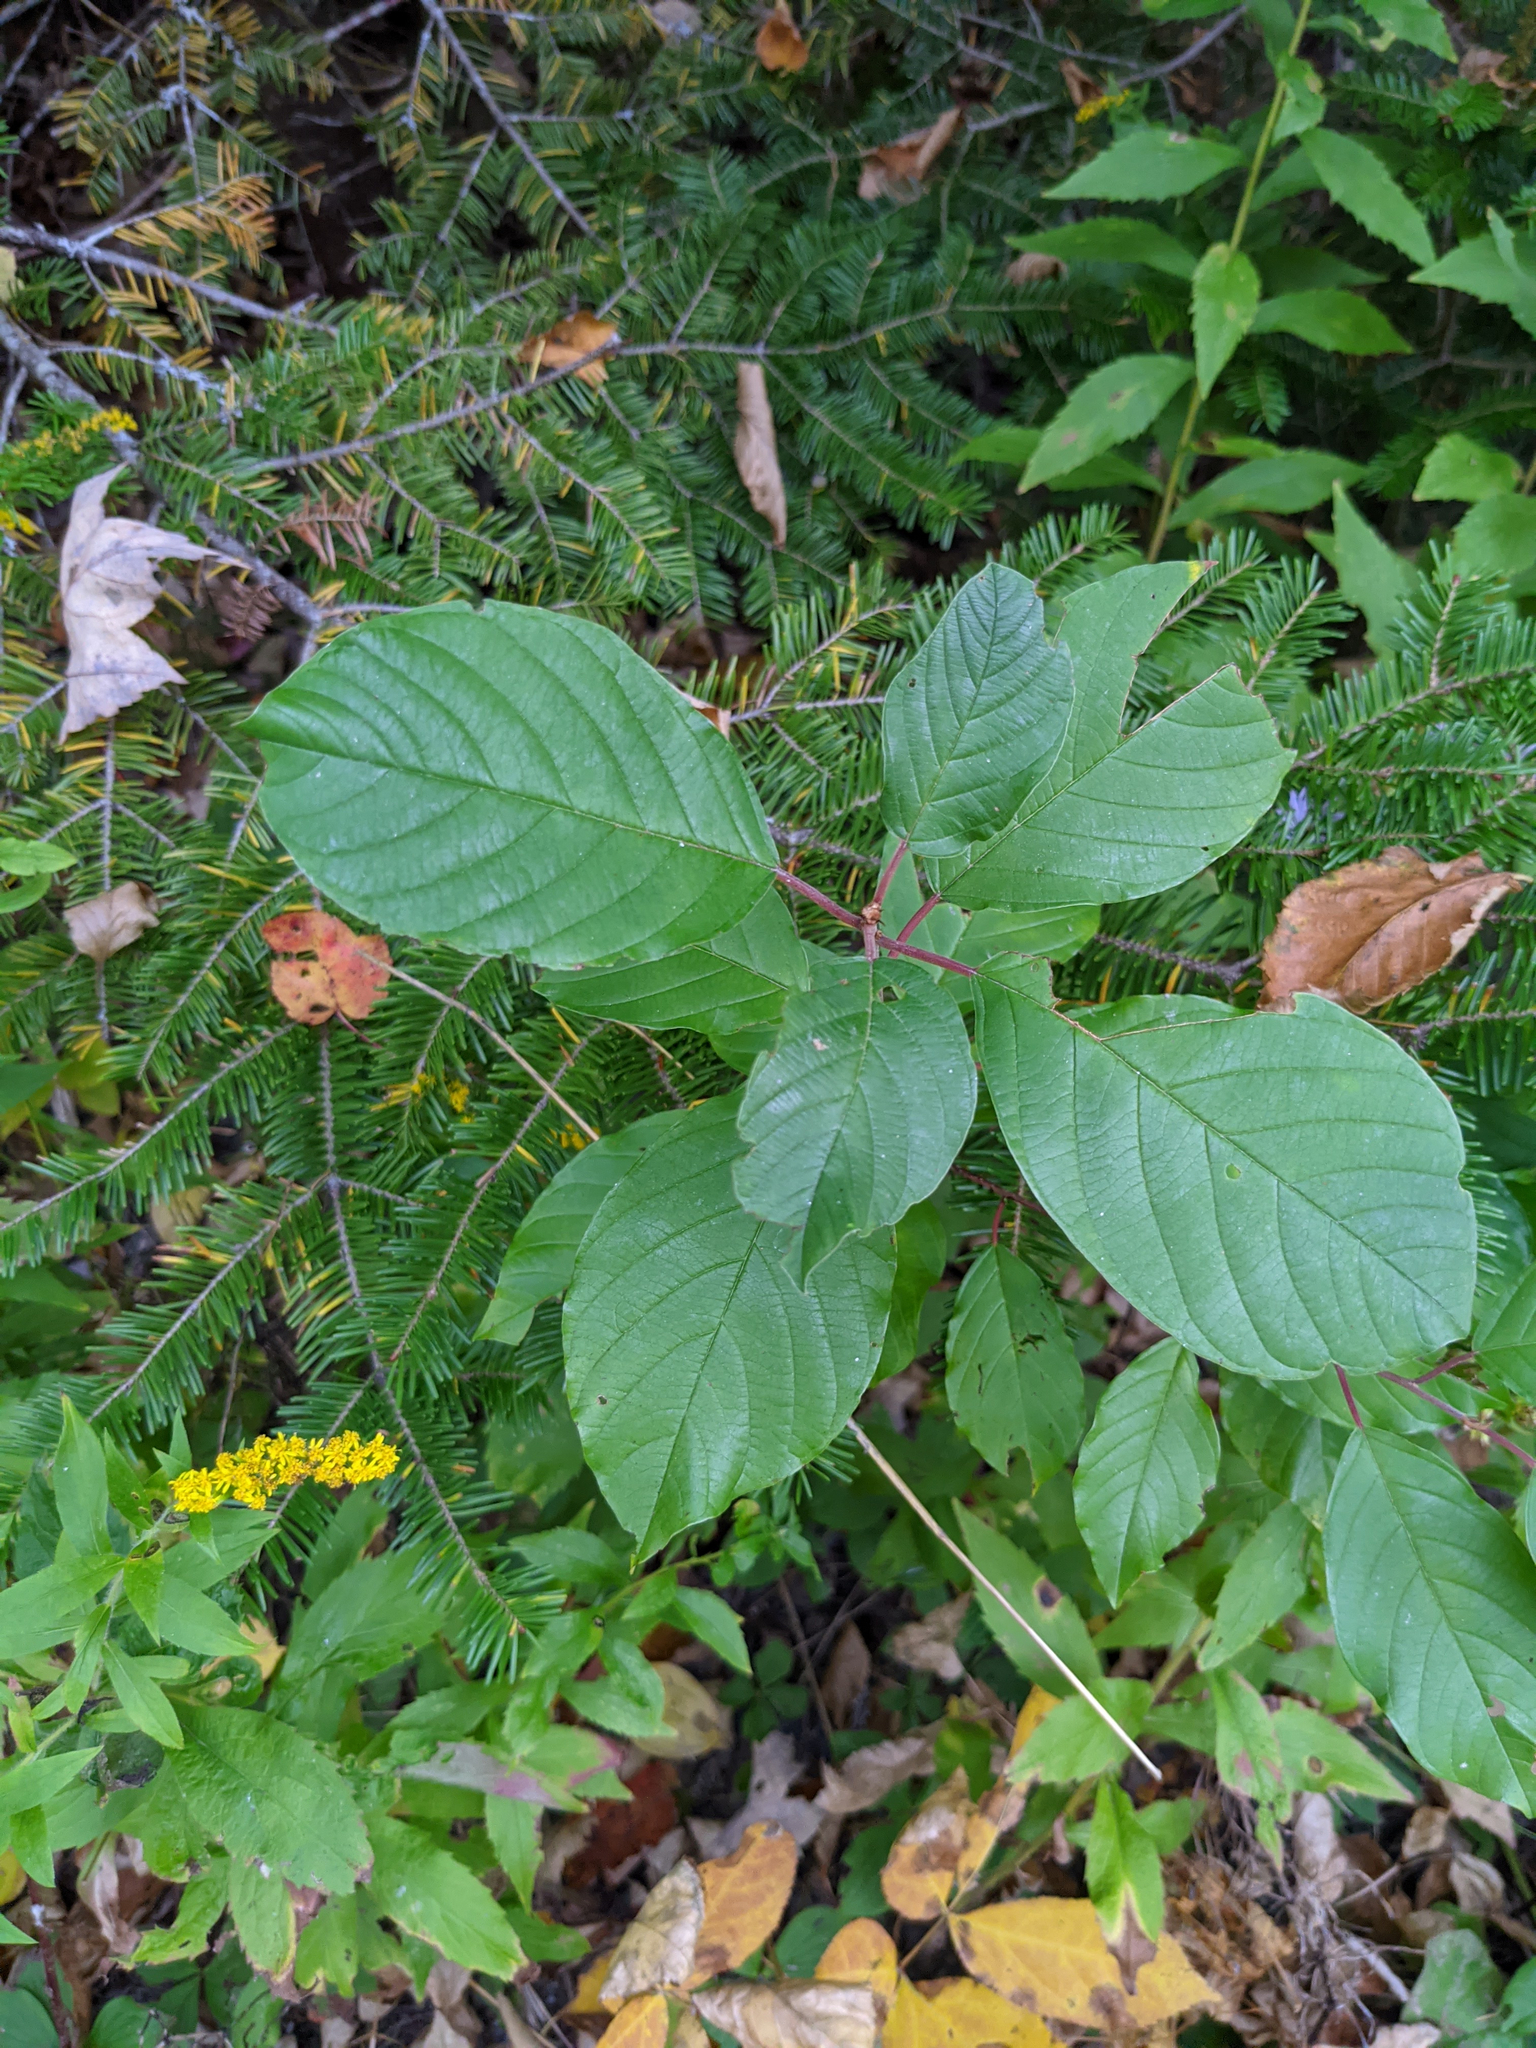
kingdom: Plantae
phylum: Tracheophyta
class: Magnoliopsida
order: Rosales
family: Rhamnaceae
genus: Frangula
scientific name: Frangula alnus
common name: Alder buckthorn
